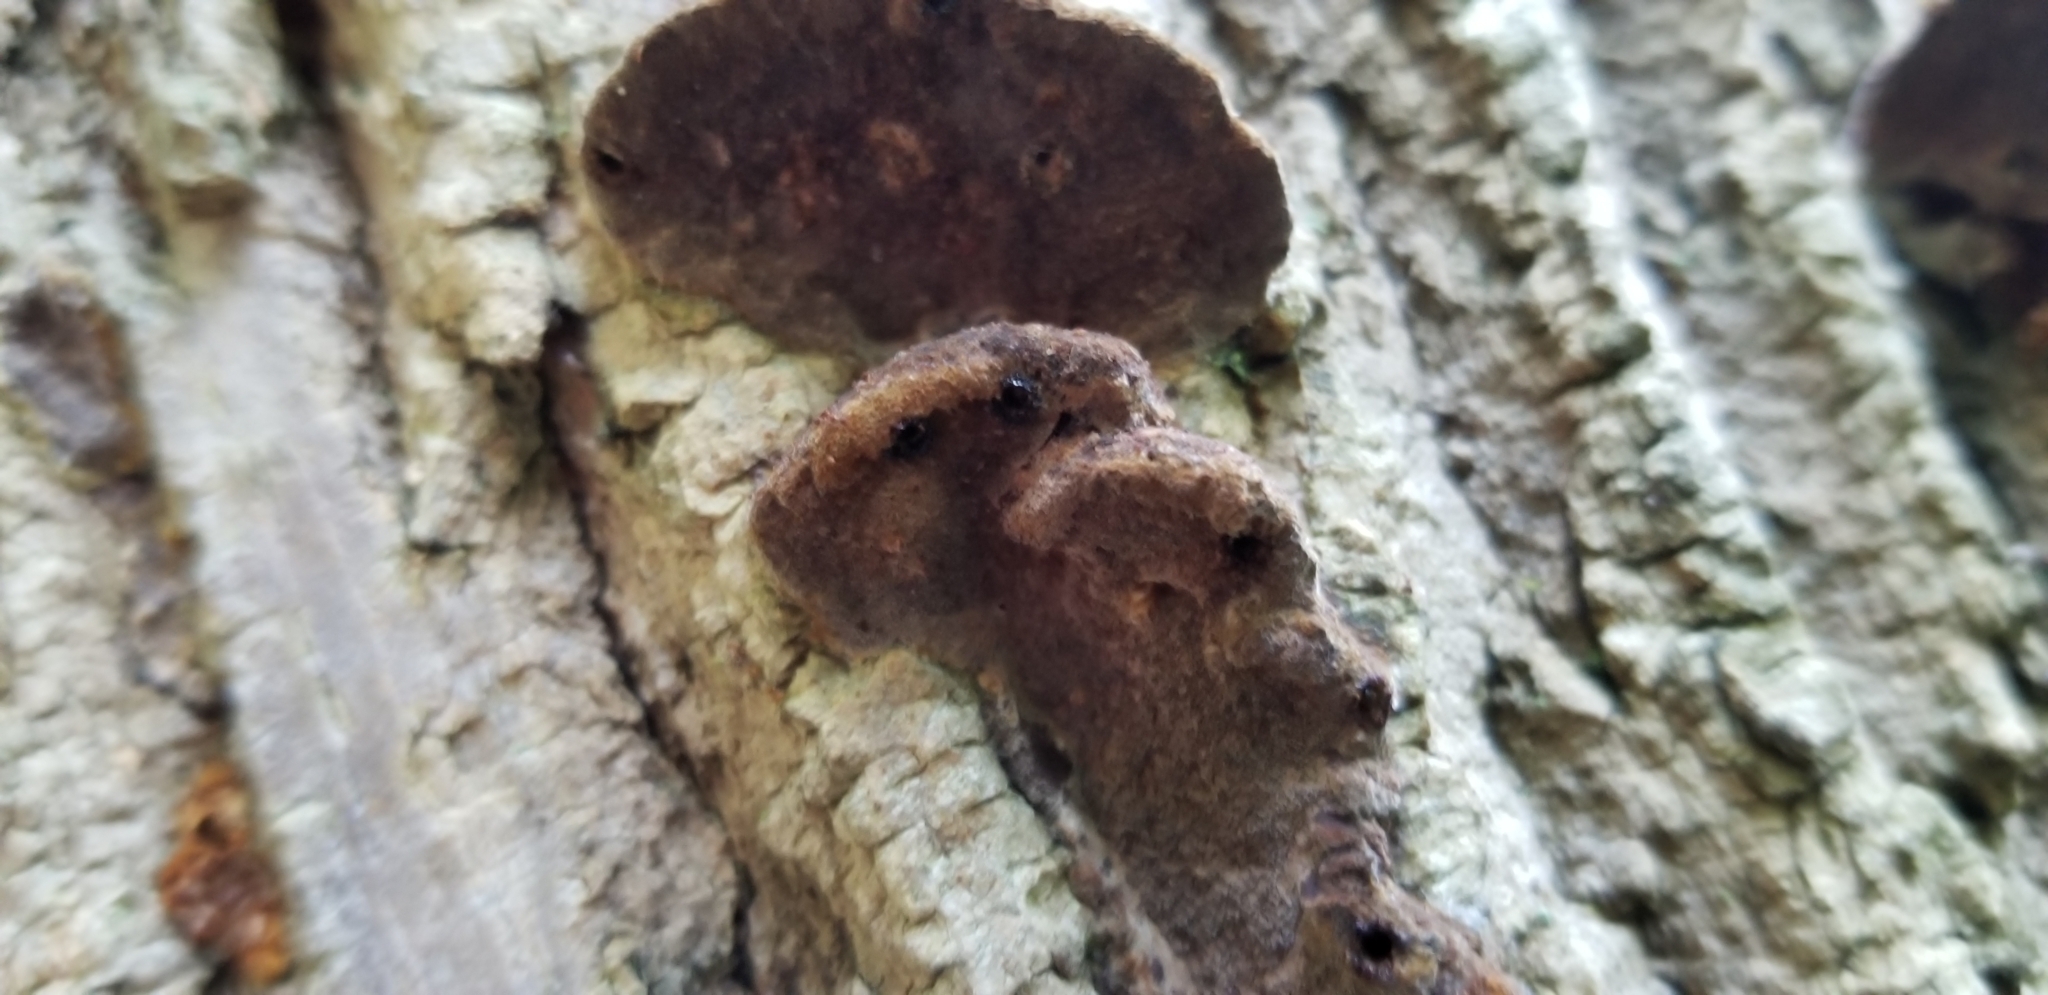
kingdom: Fungi
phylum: Basidiomycota
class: Agaricomycetes
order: Hymenochaetales
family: Hymenochaetaceae
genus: Phellinus
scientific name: Phellinus gilvus
